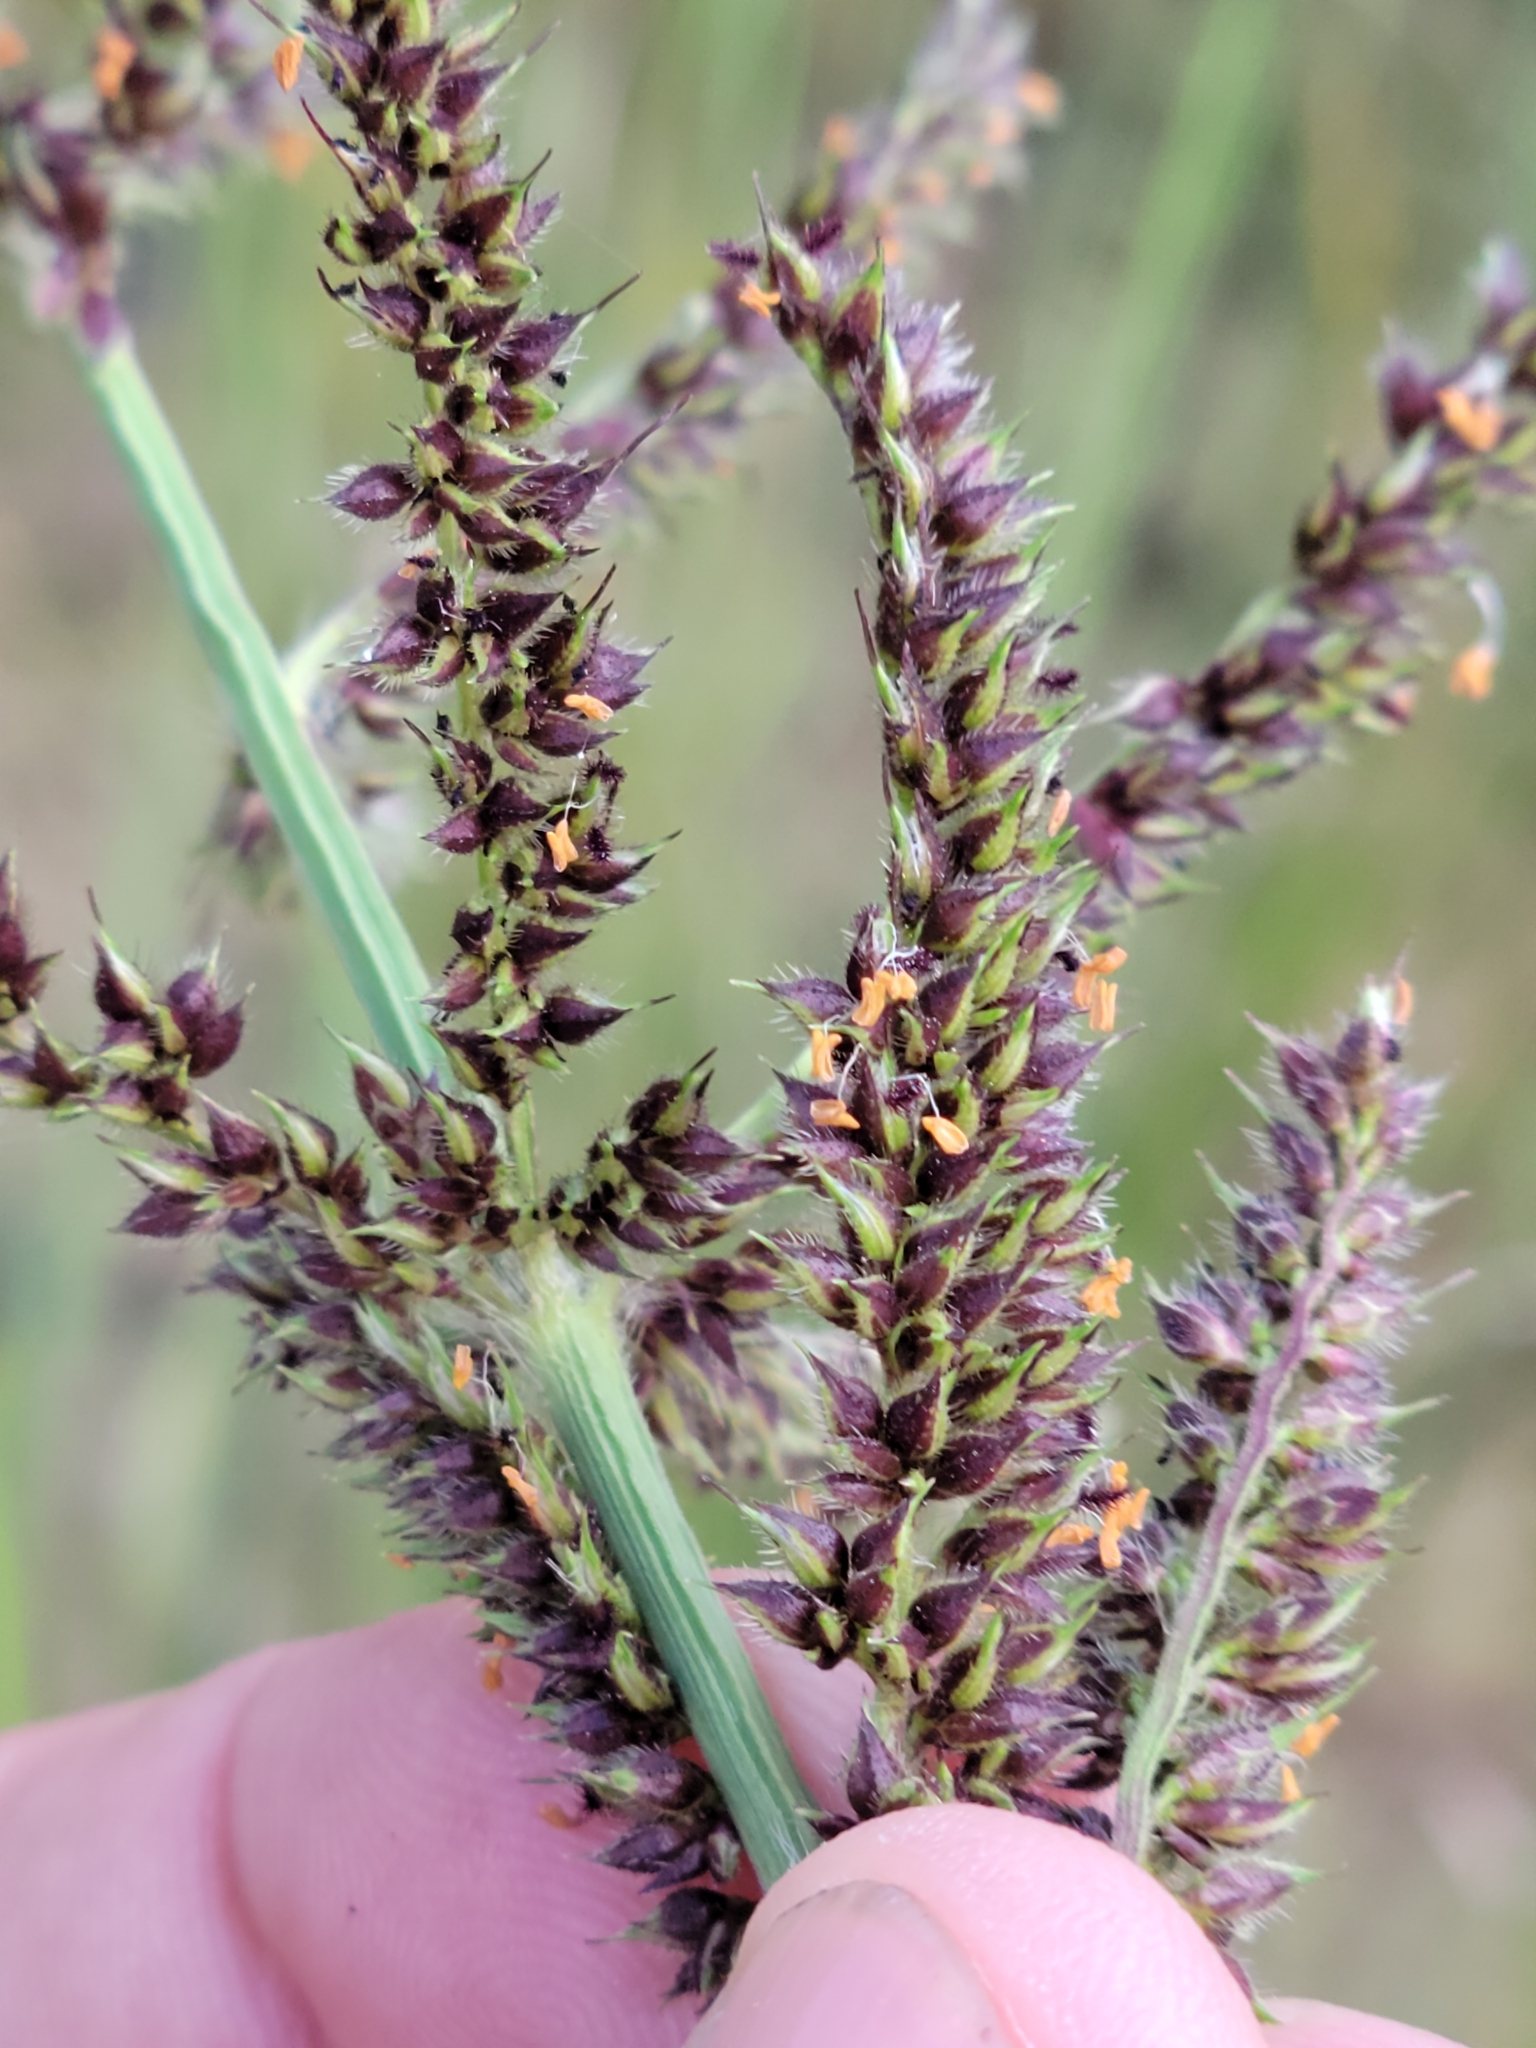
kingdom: Plantae
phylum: Tracheophyta
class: Liliopsida
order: Poales
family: Poaceae
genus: Echinochloa
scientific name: Echinochloa paludigena
